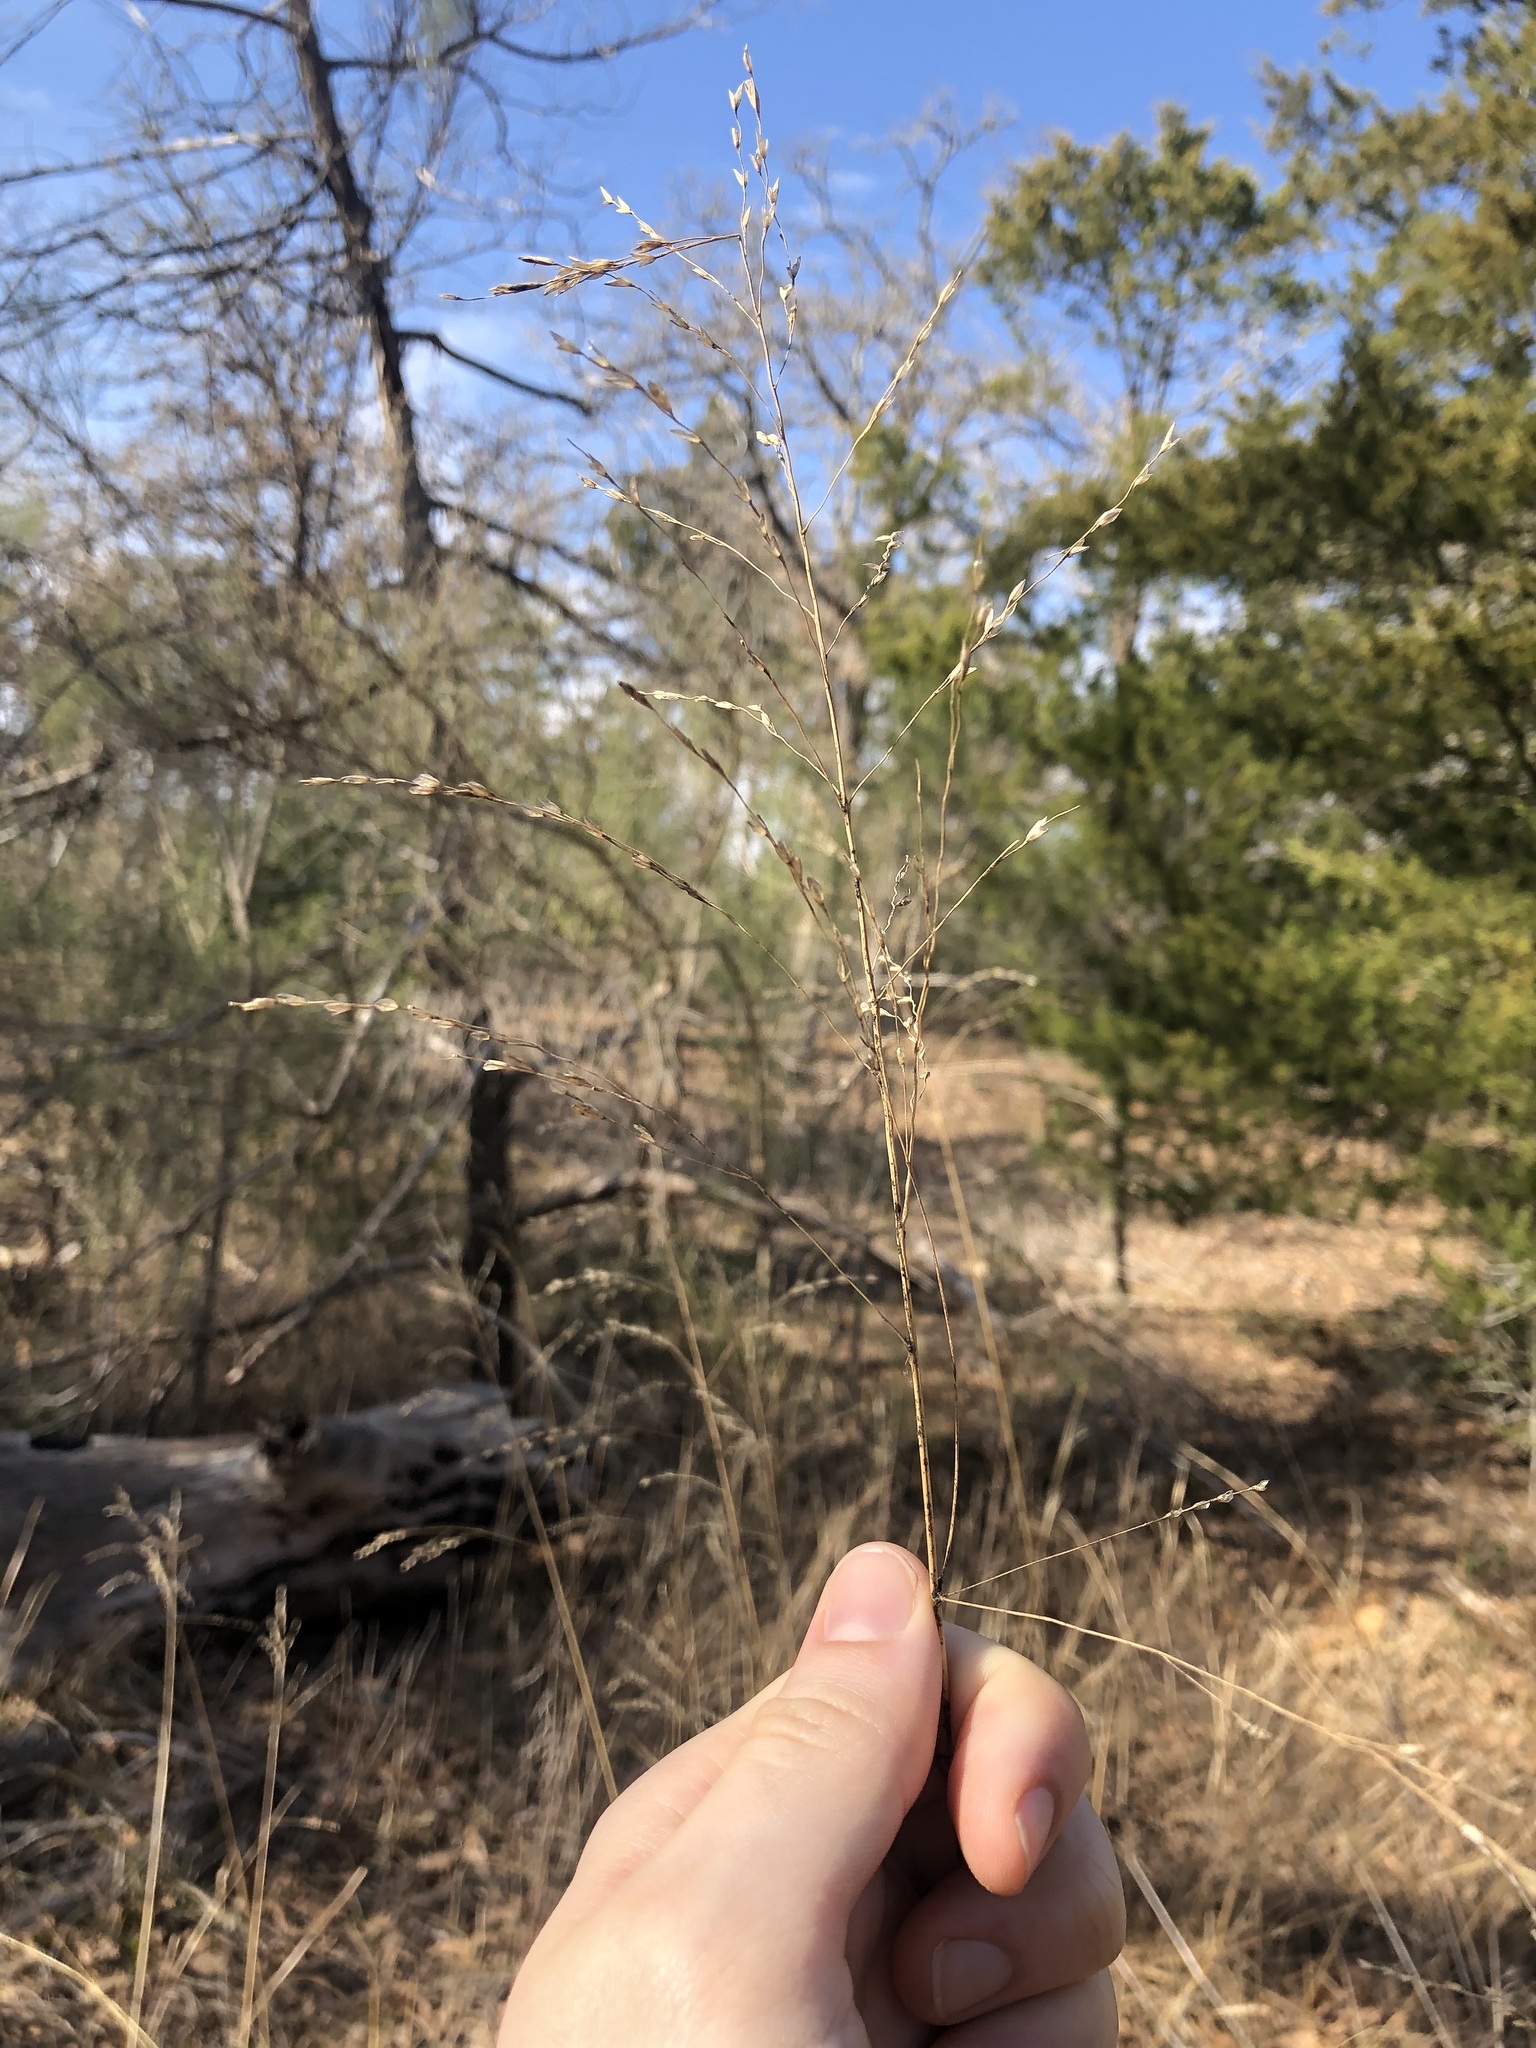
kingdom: Plantae
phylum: Tracheophyta
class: Liliopsida
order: Poales
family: Poaceae
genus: Tridens
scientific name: Tridens flavus
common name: Purpletop
